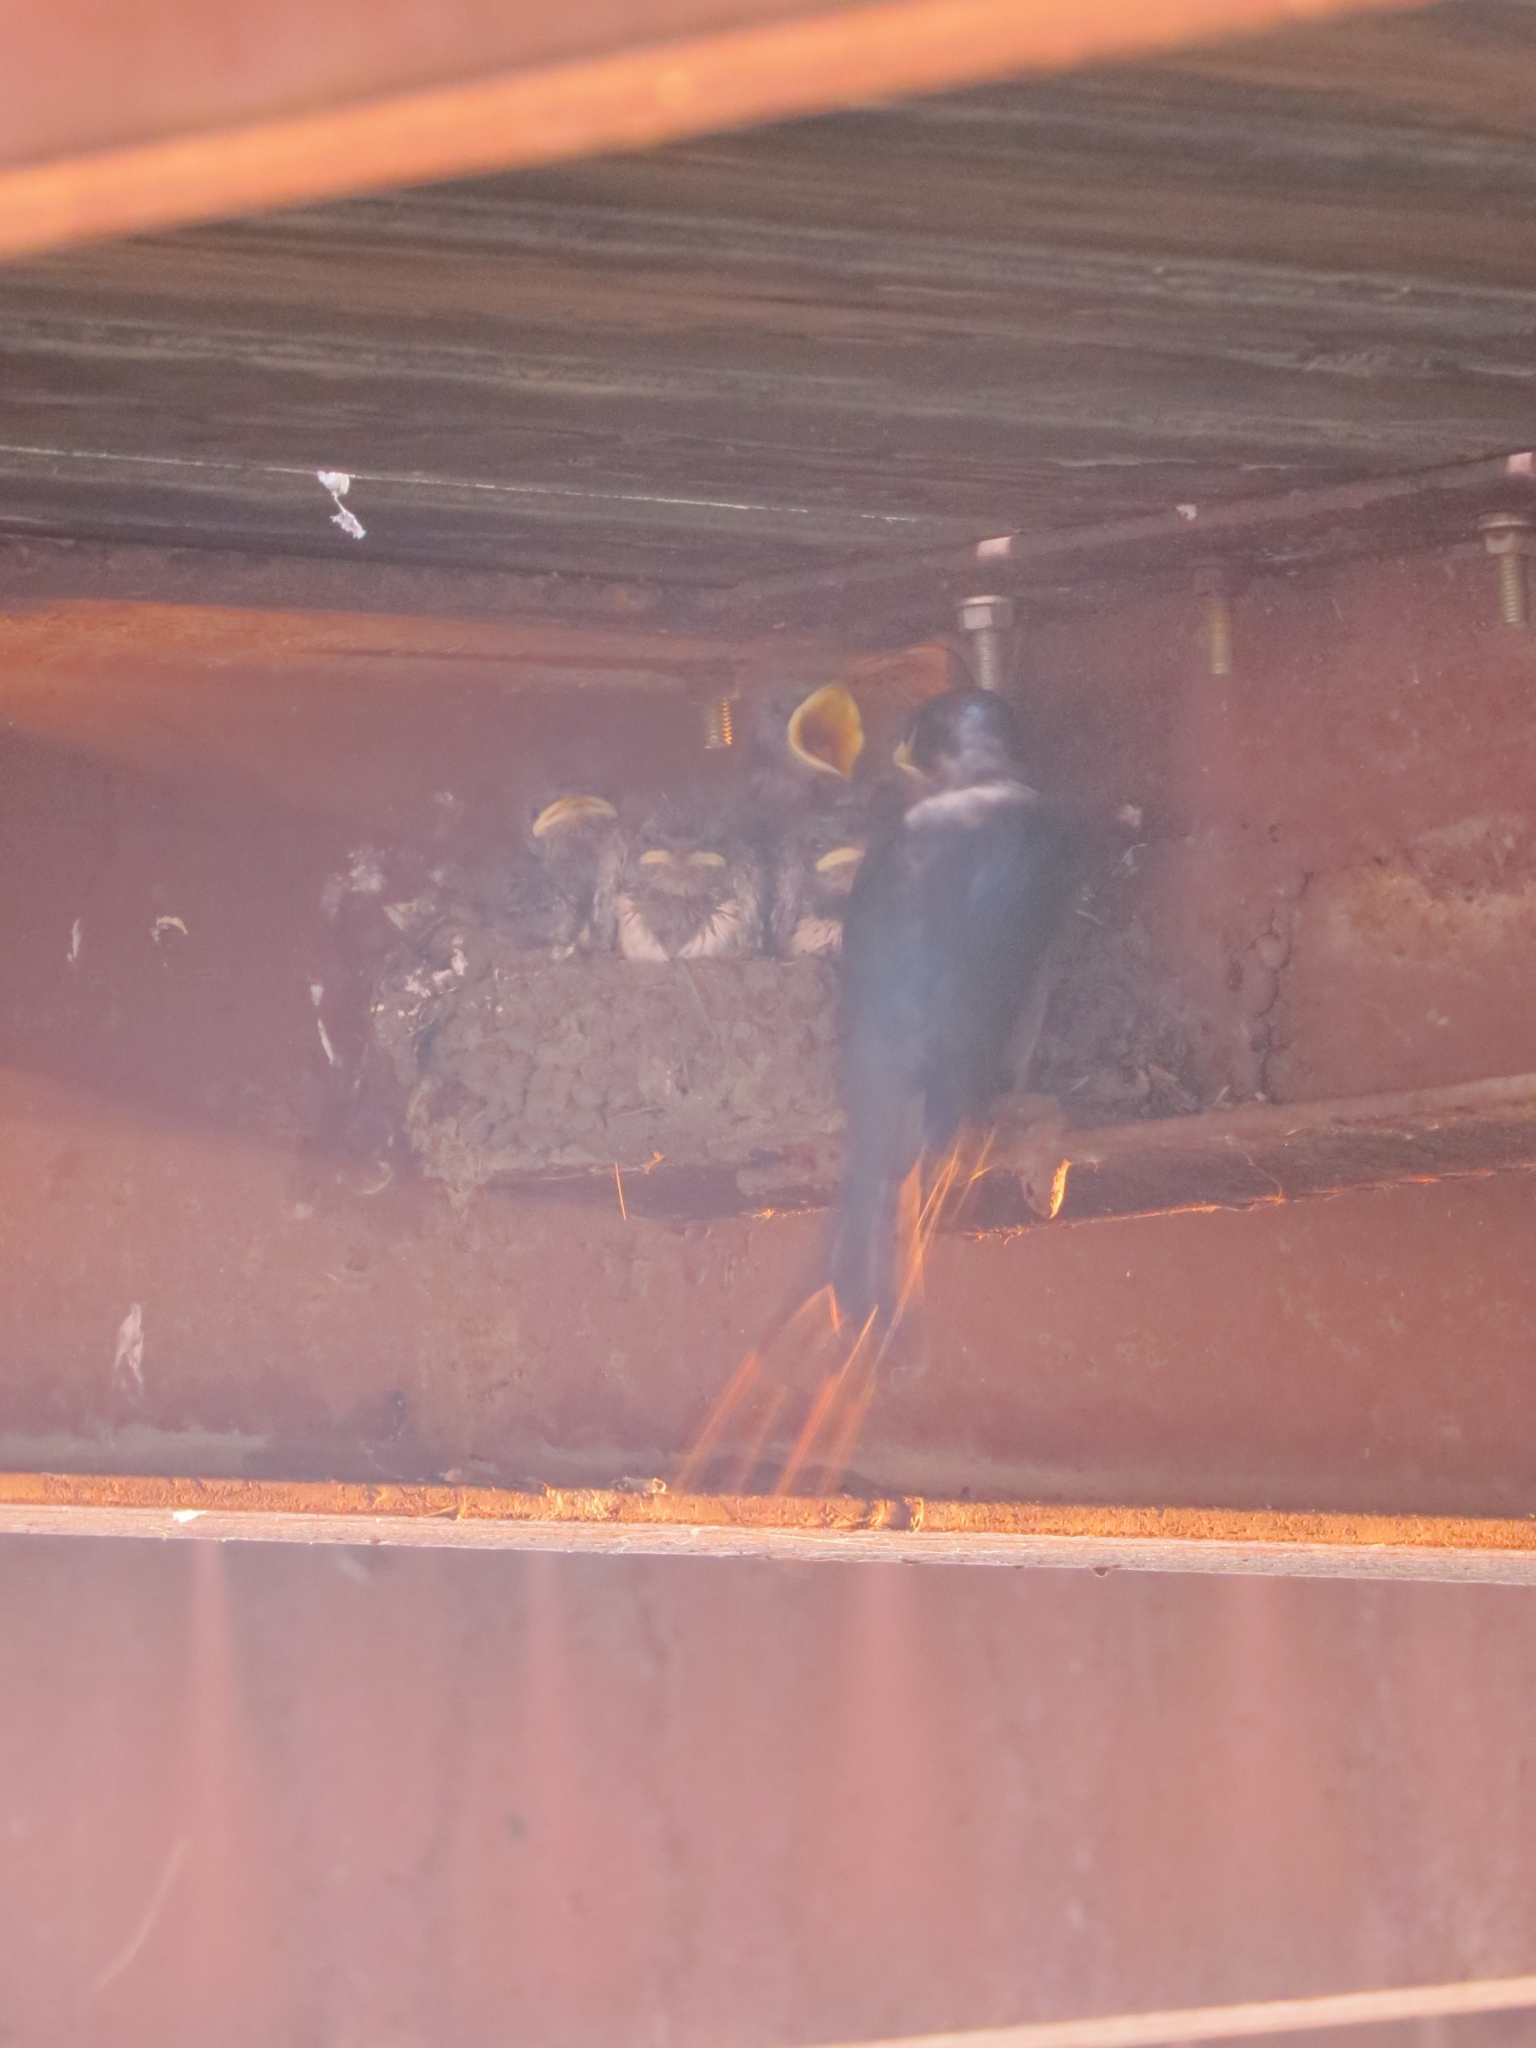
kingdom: Animalia
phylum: Chordata
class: Aves
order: Passeriformes
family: Hirundinidae
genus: Hirundo
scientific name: Hirundo rustica
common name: Barn swallow
